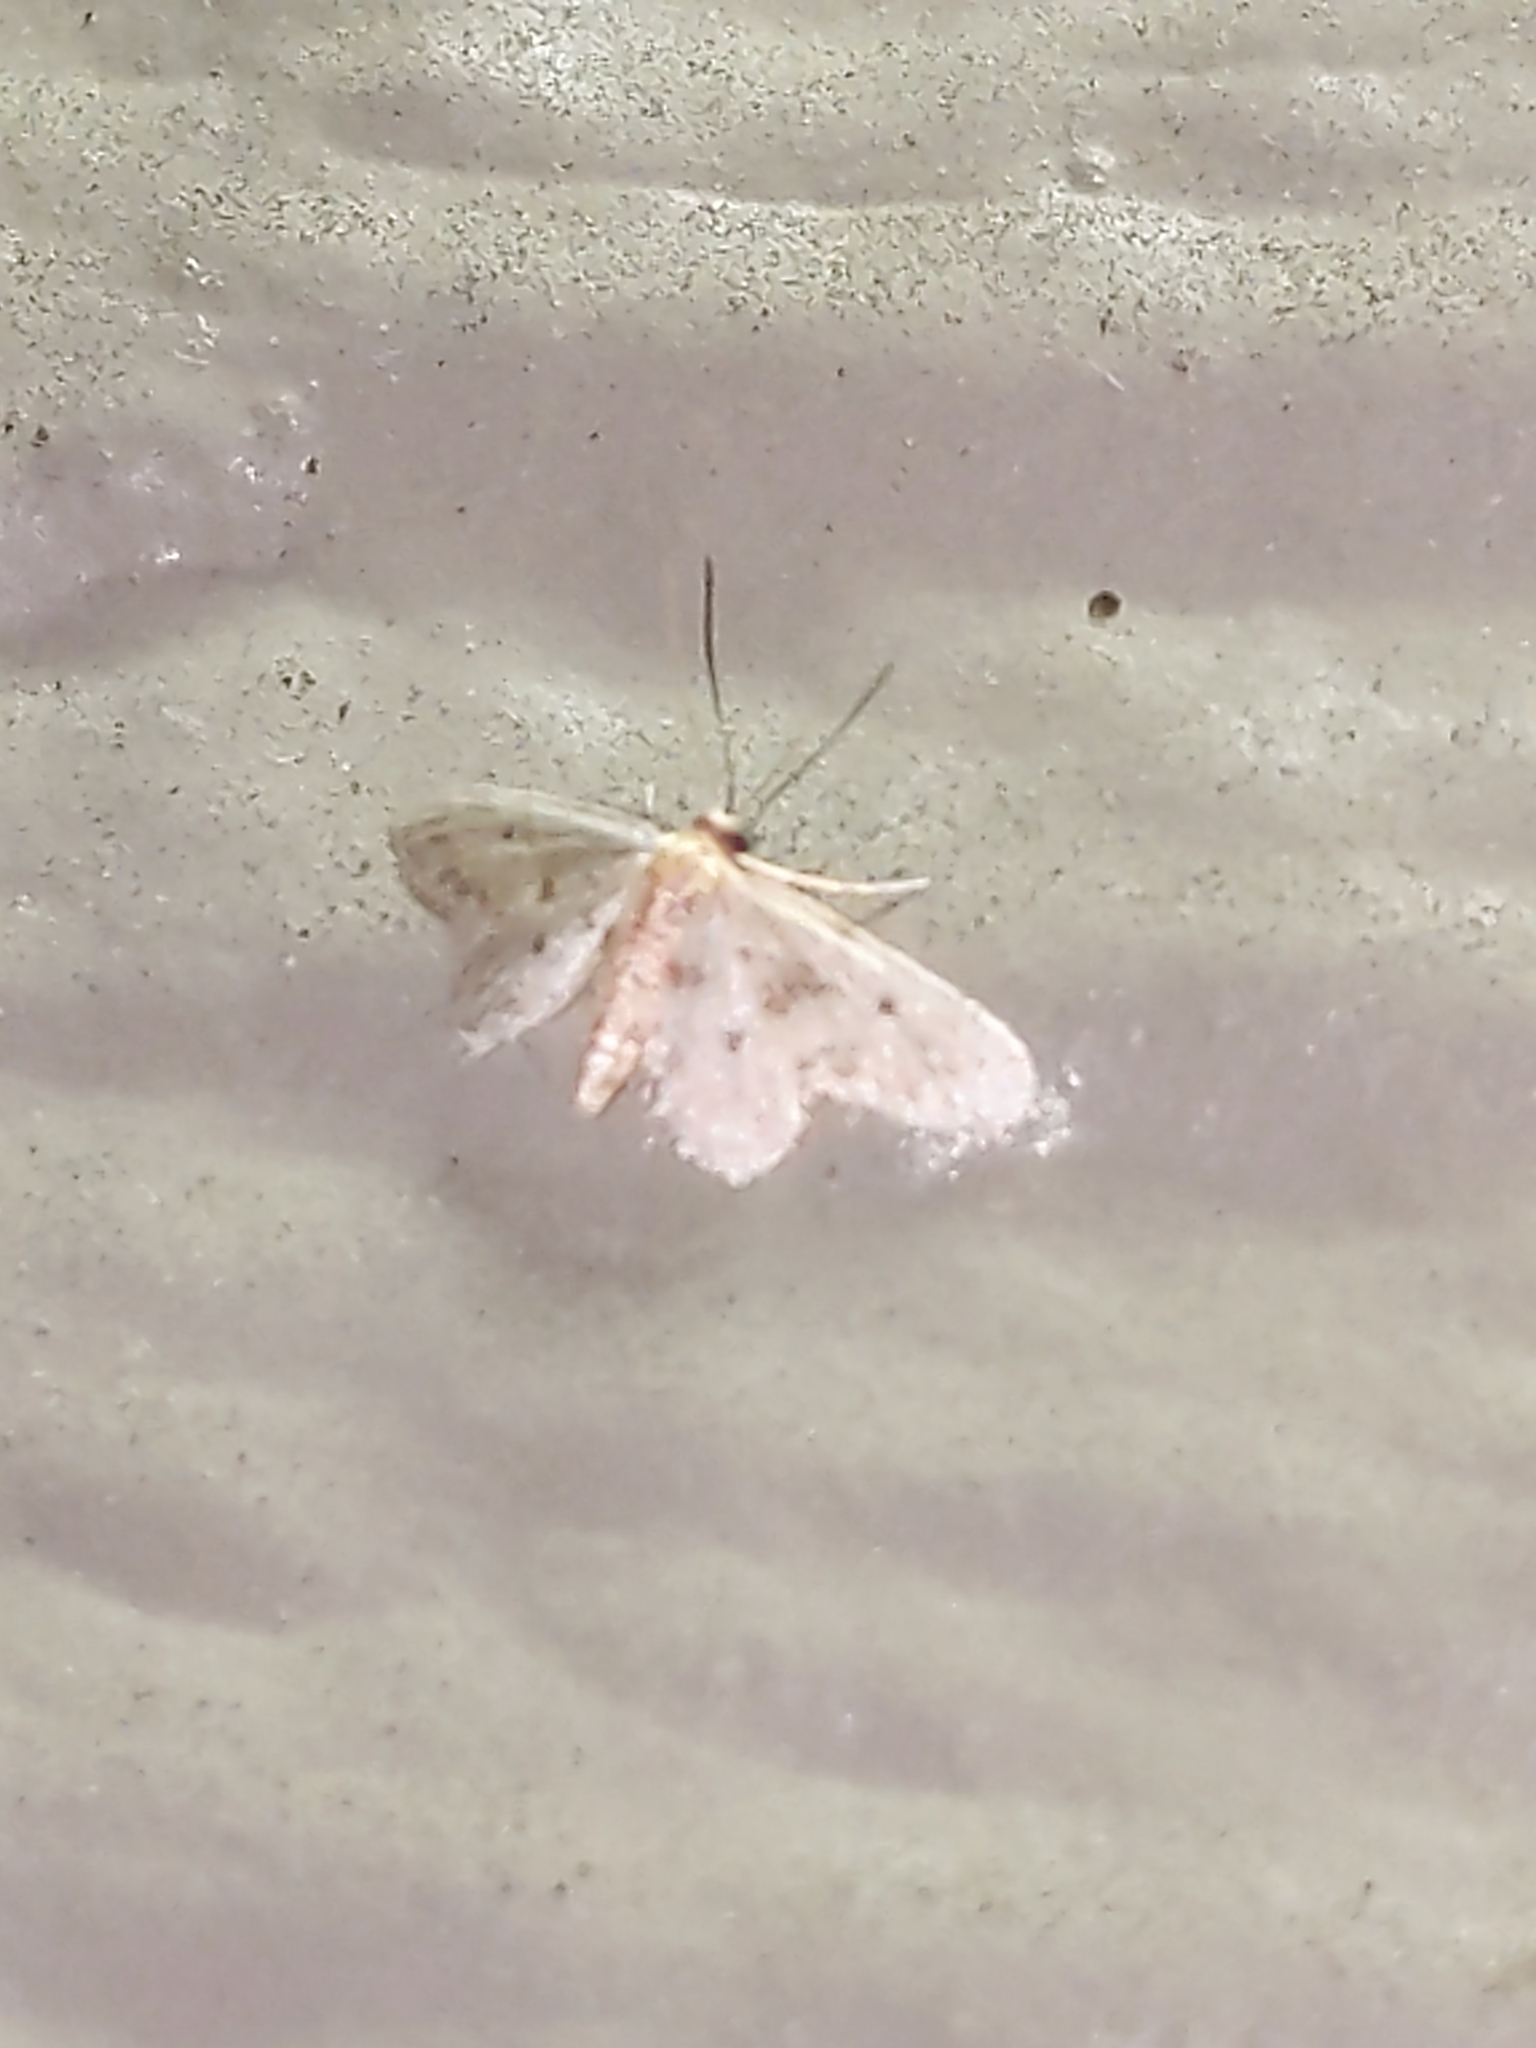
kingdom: Animalia
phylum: Arthropoda
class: Insecta
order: Lepidoptera
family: Geometridae
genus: Idaea
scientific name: Idaea bonifata
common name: Fortunate wave
